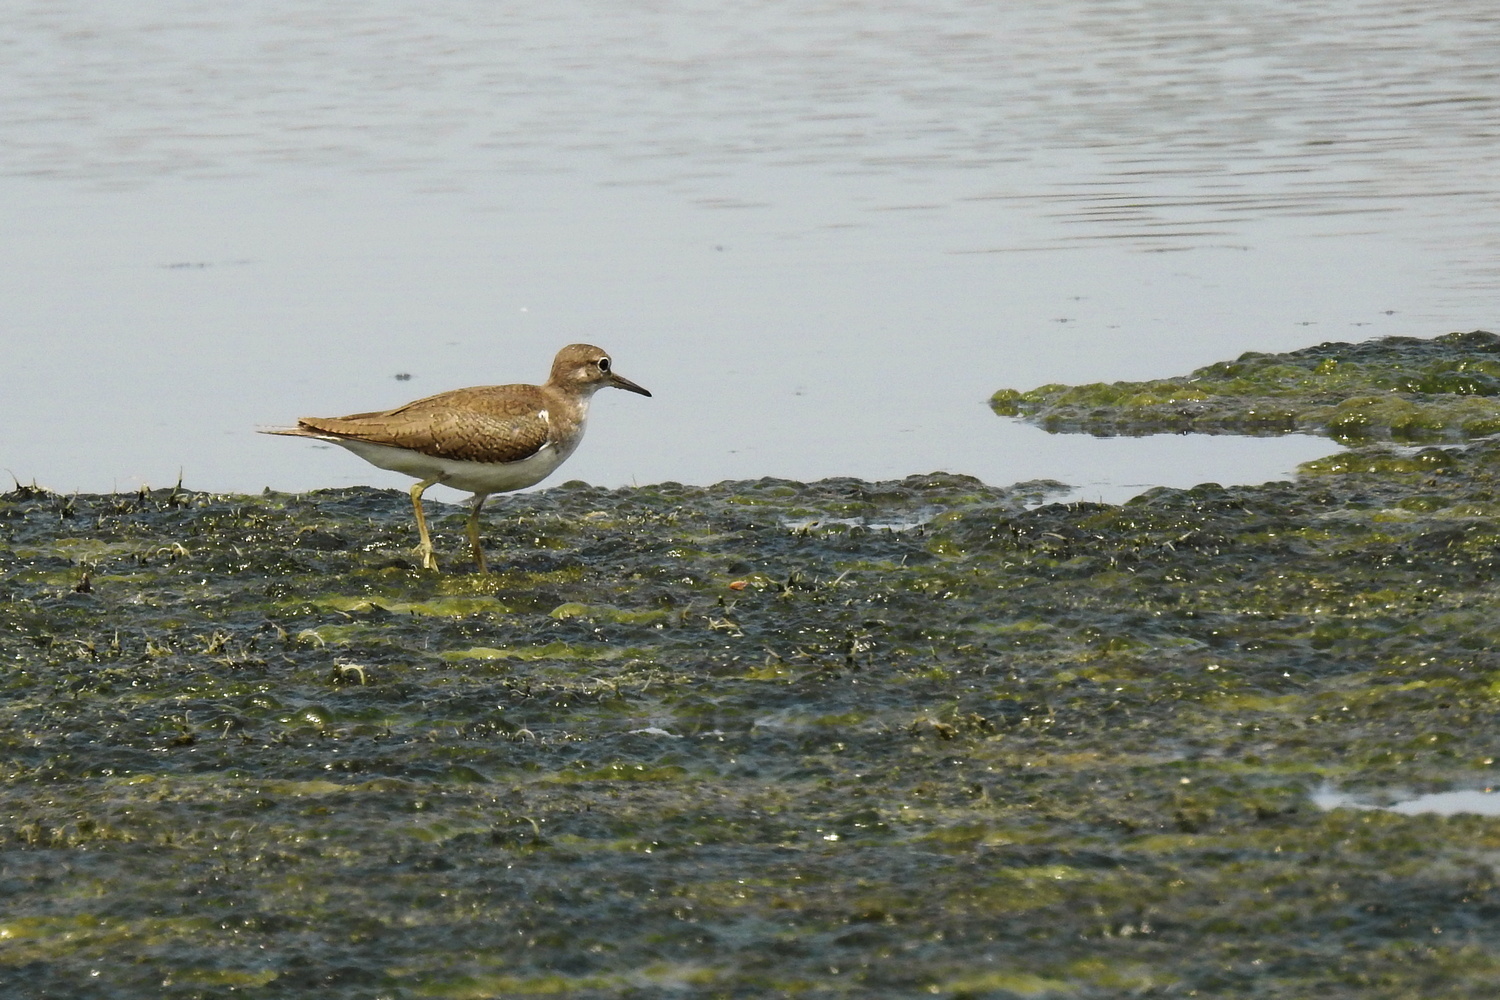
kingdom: Animalia
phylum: Chordata
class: Aves
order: Charadriiformes
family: Scolopacidae
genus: Actitis
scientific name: Actitis hypoleucos
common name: Common sandpiper
